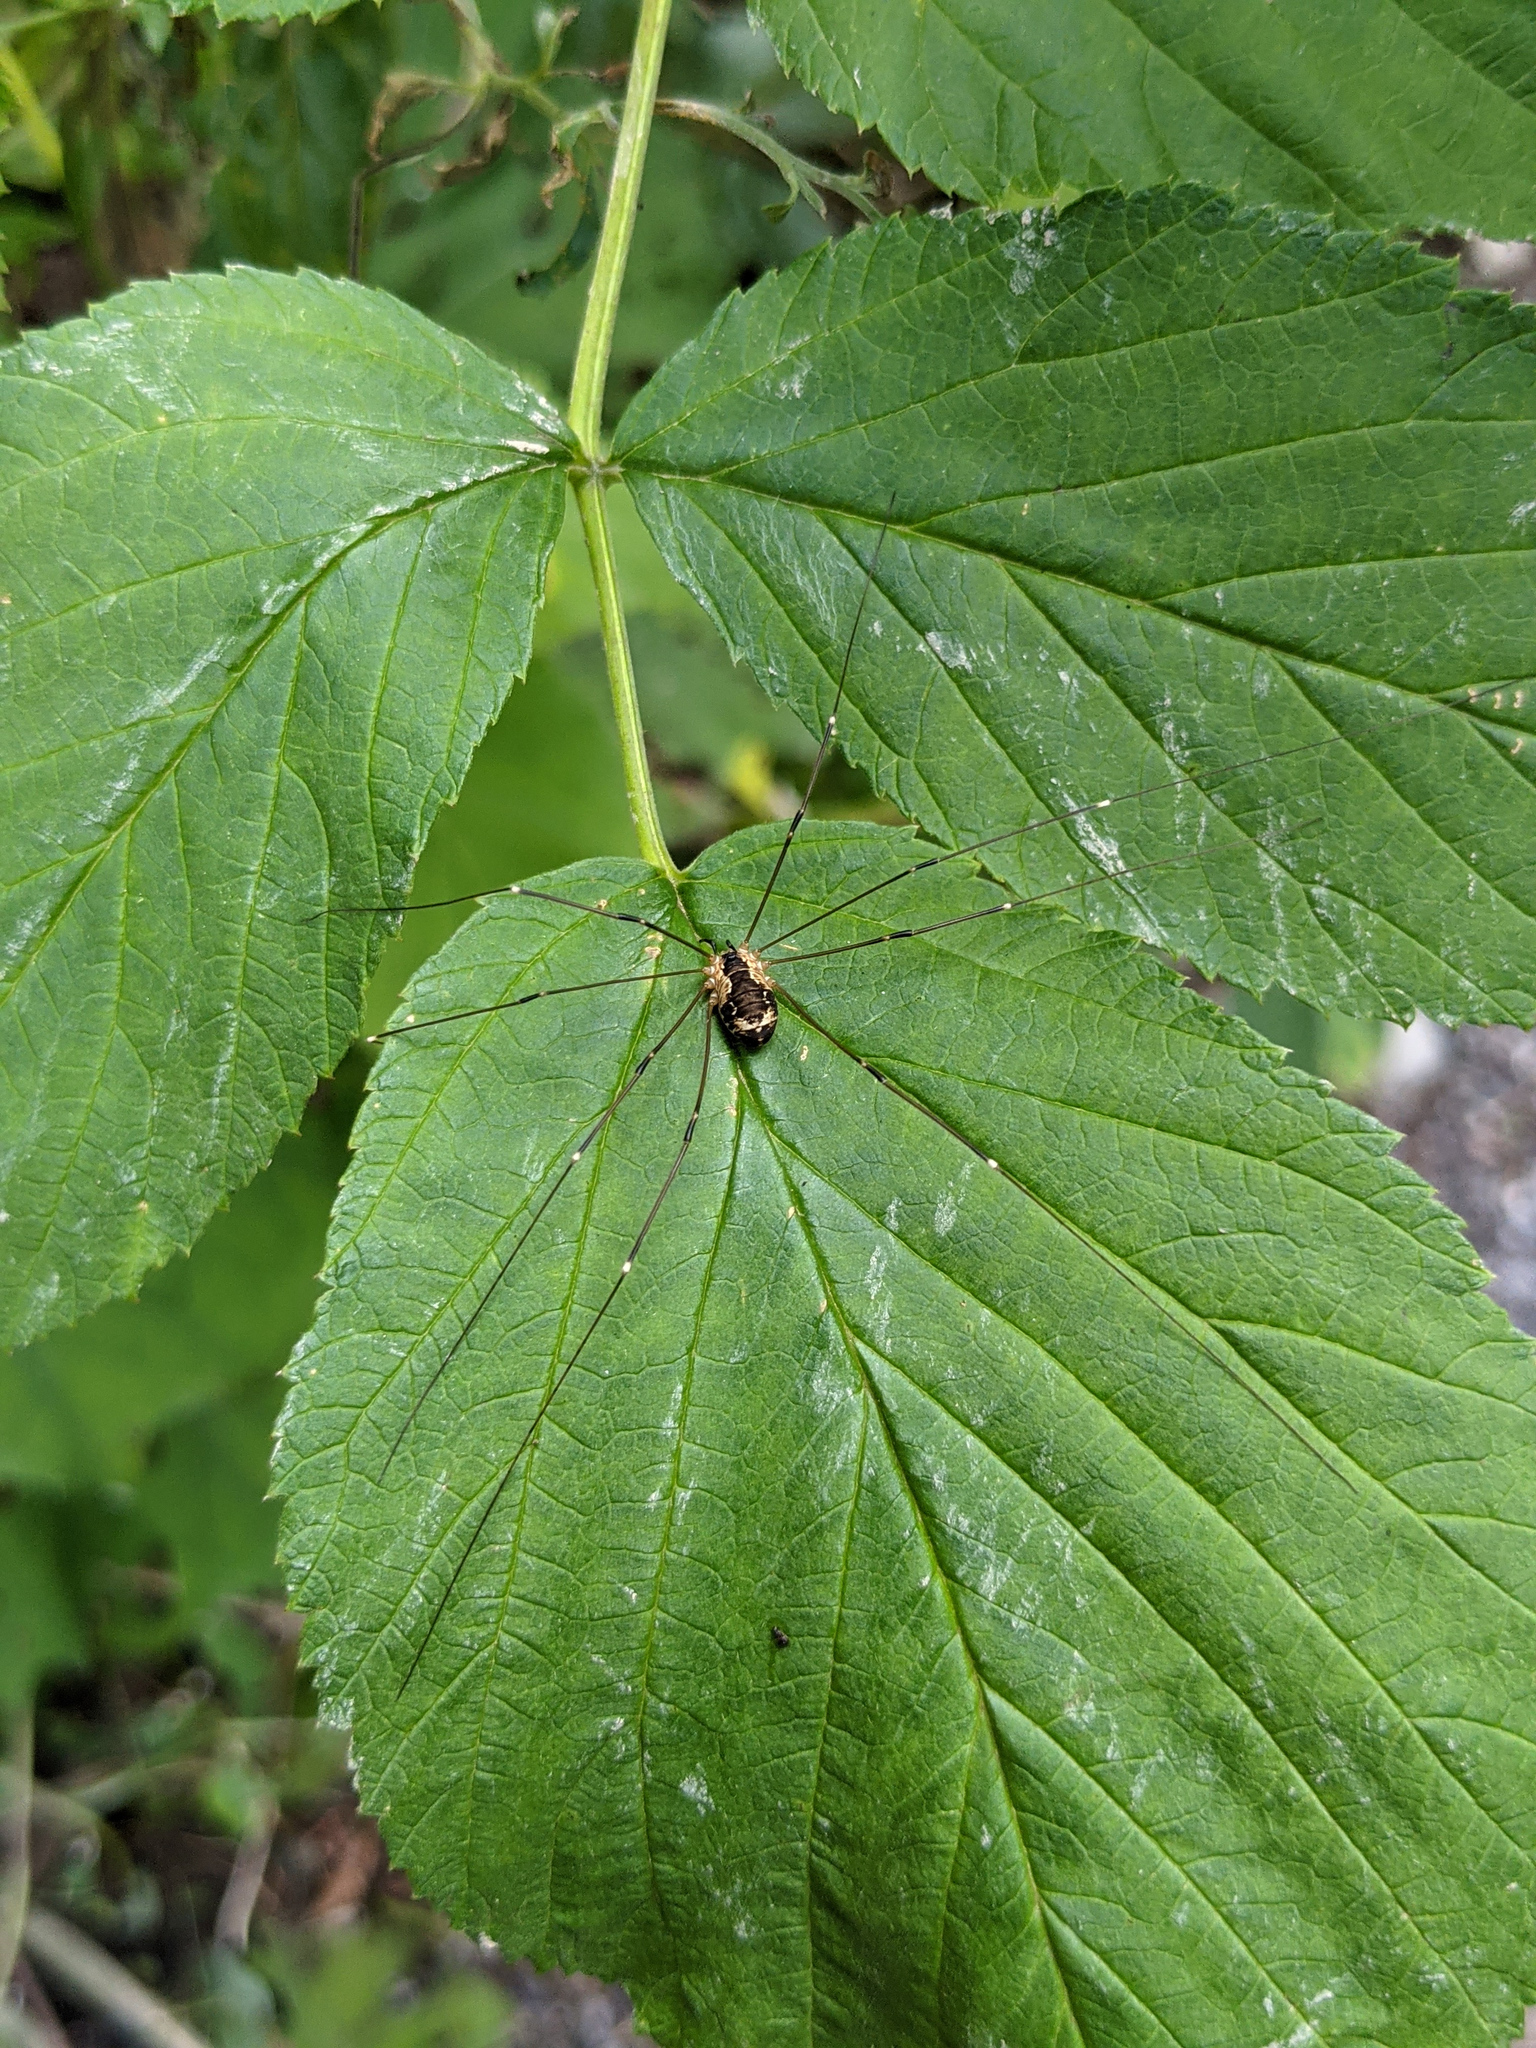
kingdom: Animalia
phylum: Arthropoda
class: Arachnida
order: Opiliones
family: Sclerosomatidae
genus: Leiobunum
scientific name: Leiobunum
